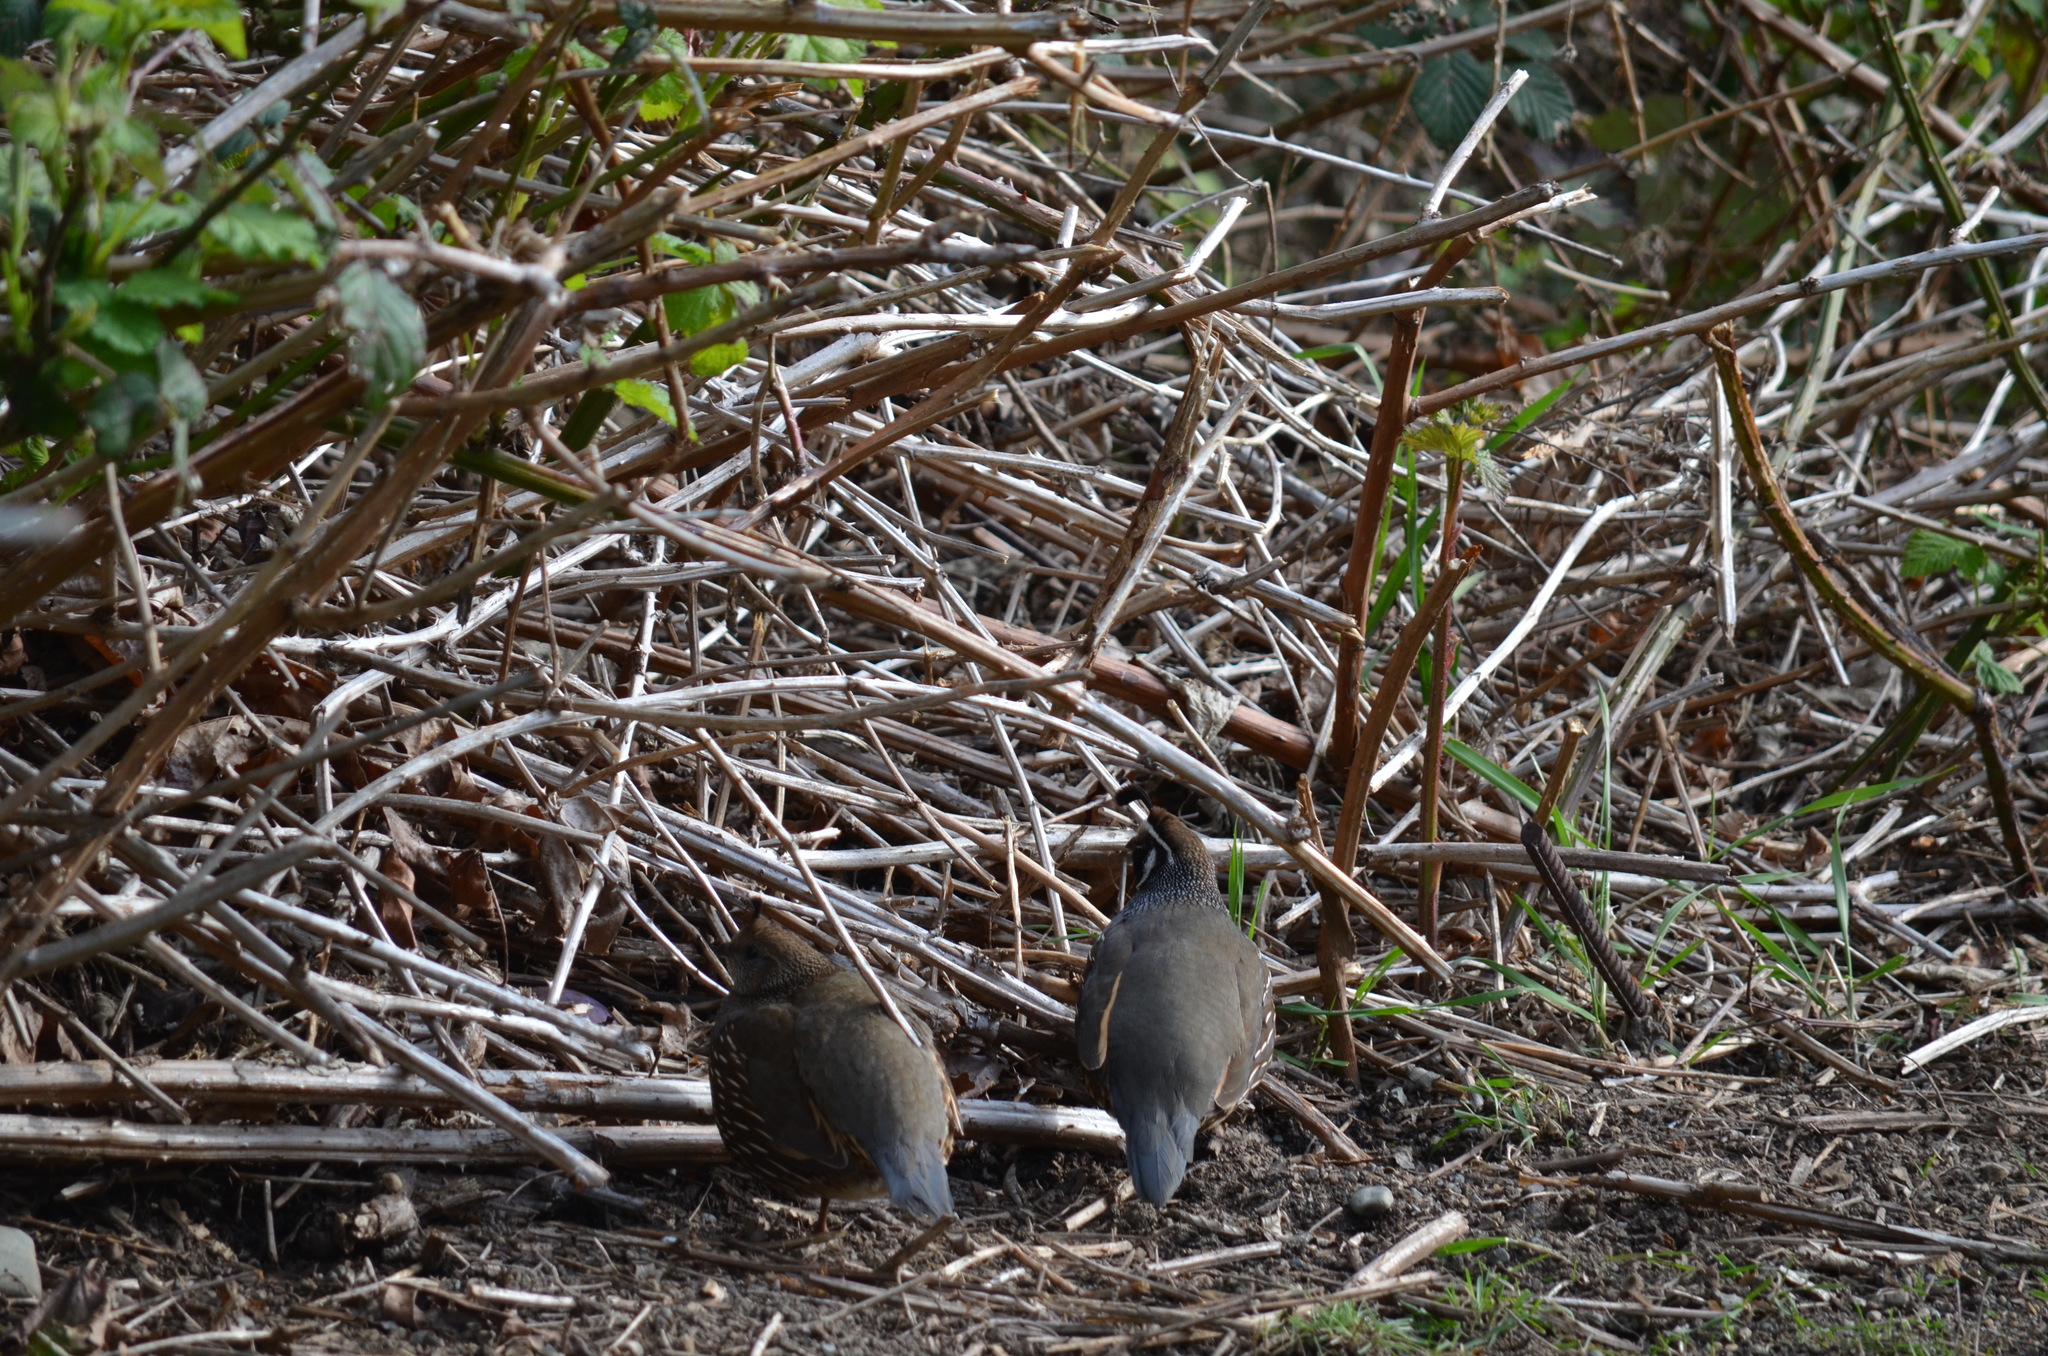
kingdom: Animalia
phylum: Chordata
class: Aves
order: Galliformes
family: Odontophoridae
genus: Callipepla
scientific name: Callipepla californica
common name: California quail
